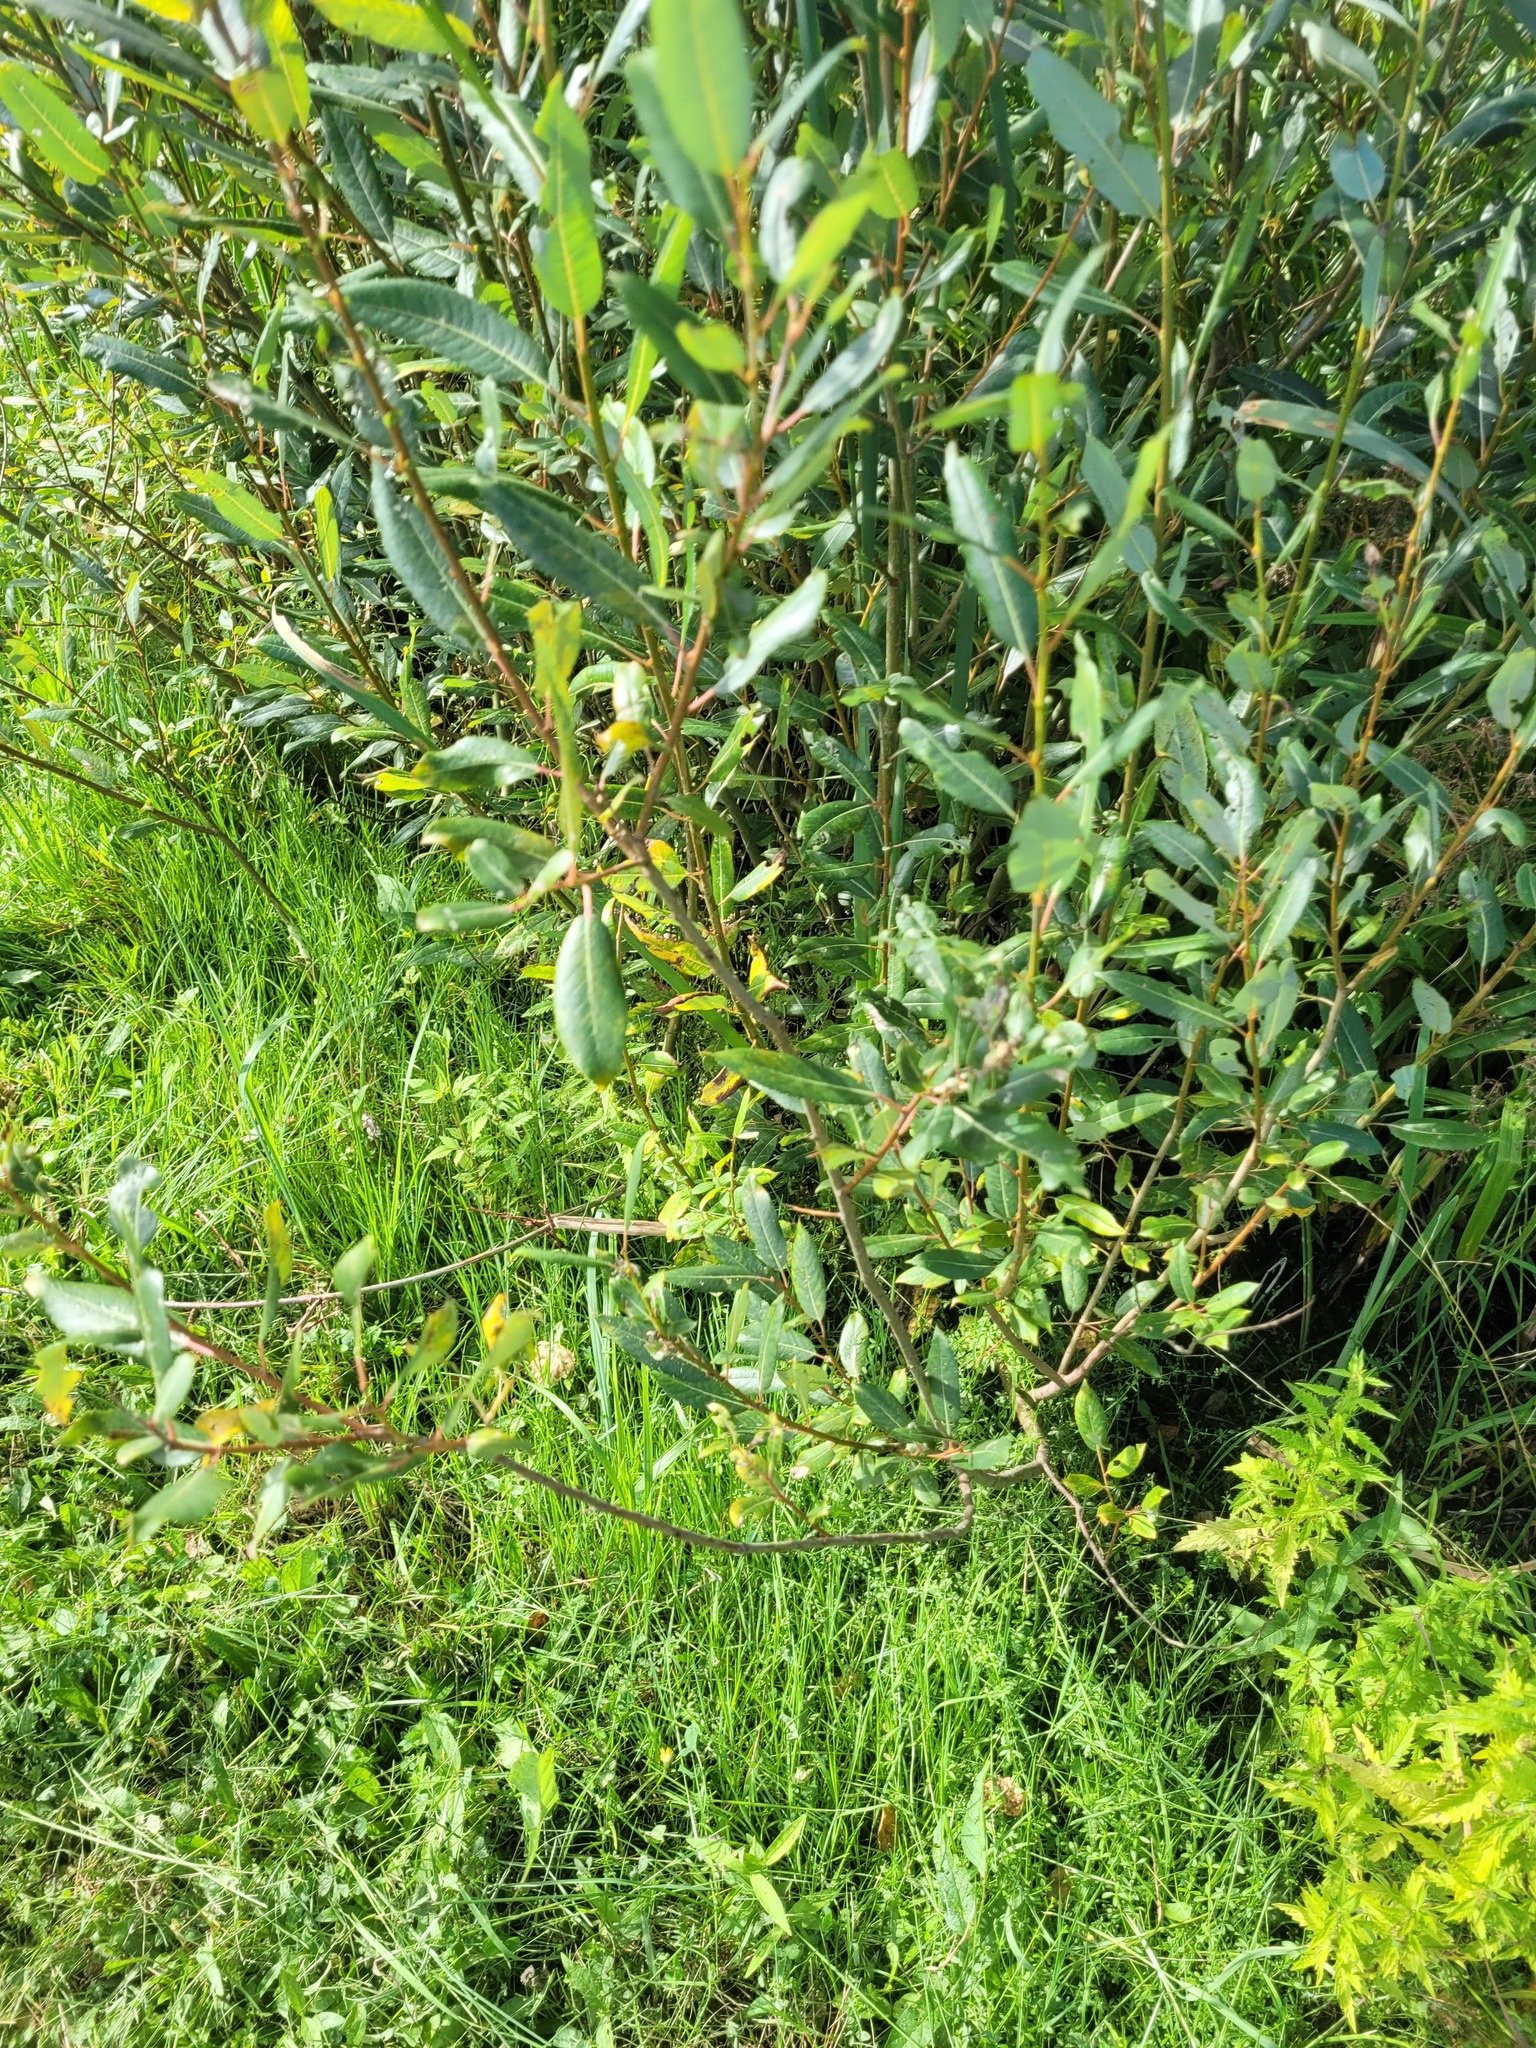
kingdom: Plantae
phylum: Tracheophyta
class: Magnoliopsida
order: Malpighiales
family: Salicaceae
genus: Salix
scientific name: Salix triandra
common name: Almond willow
